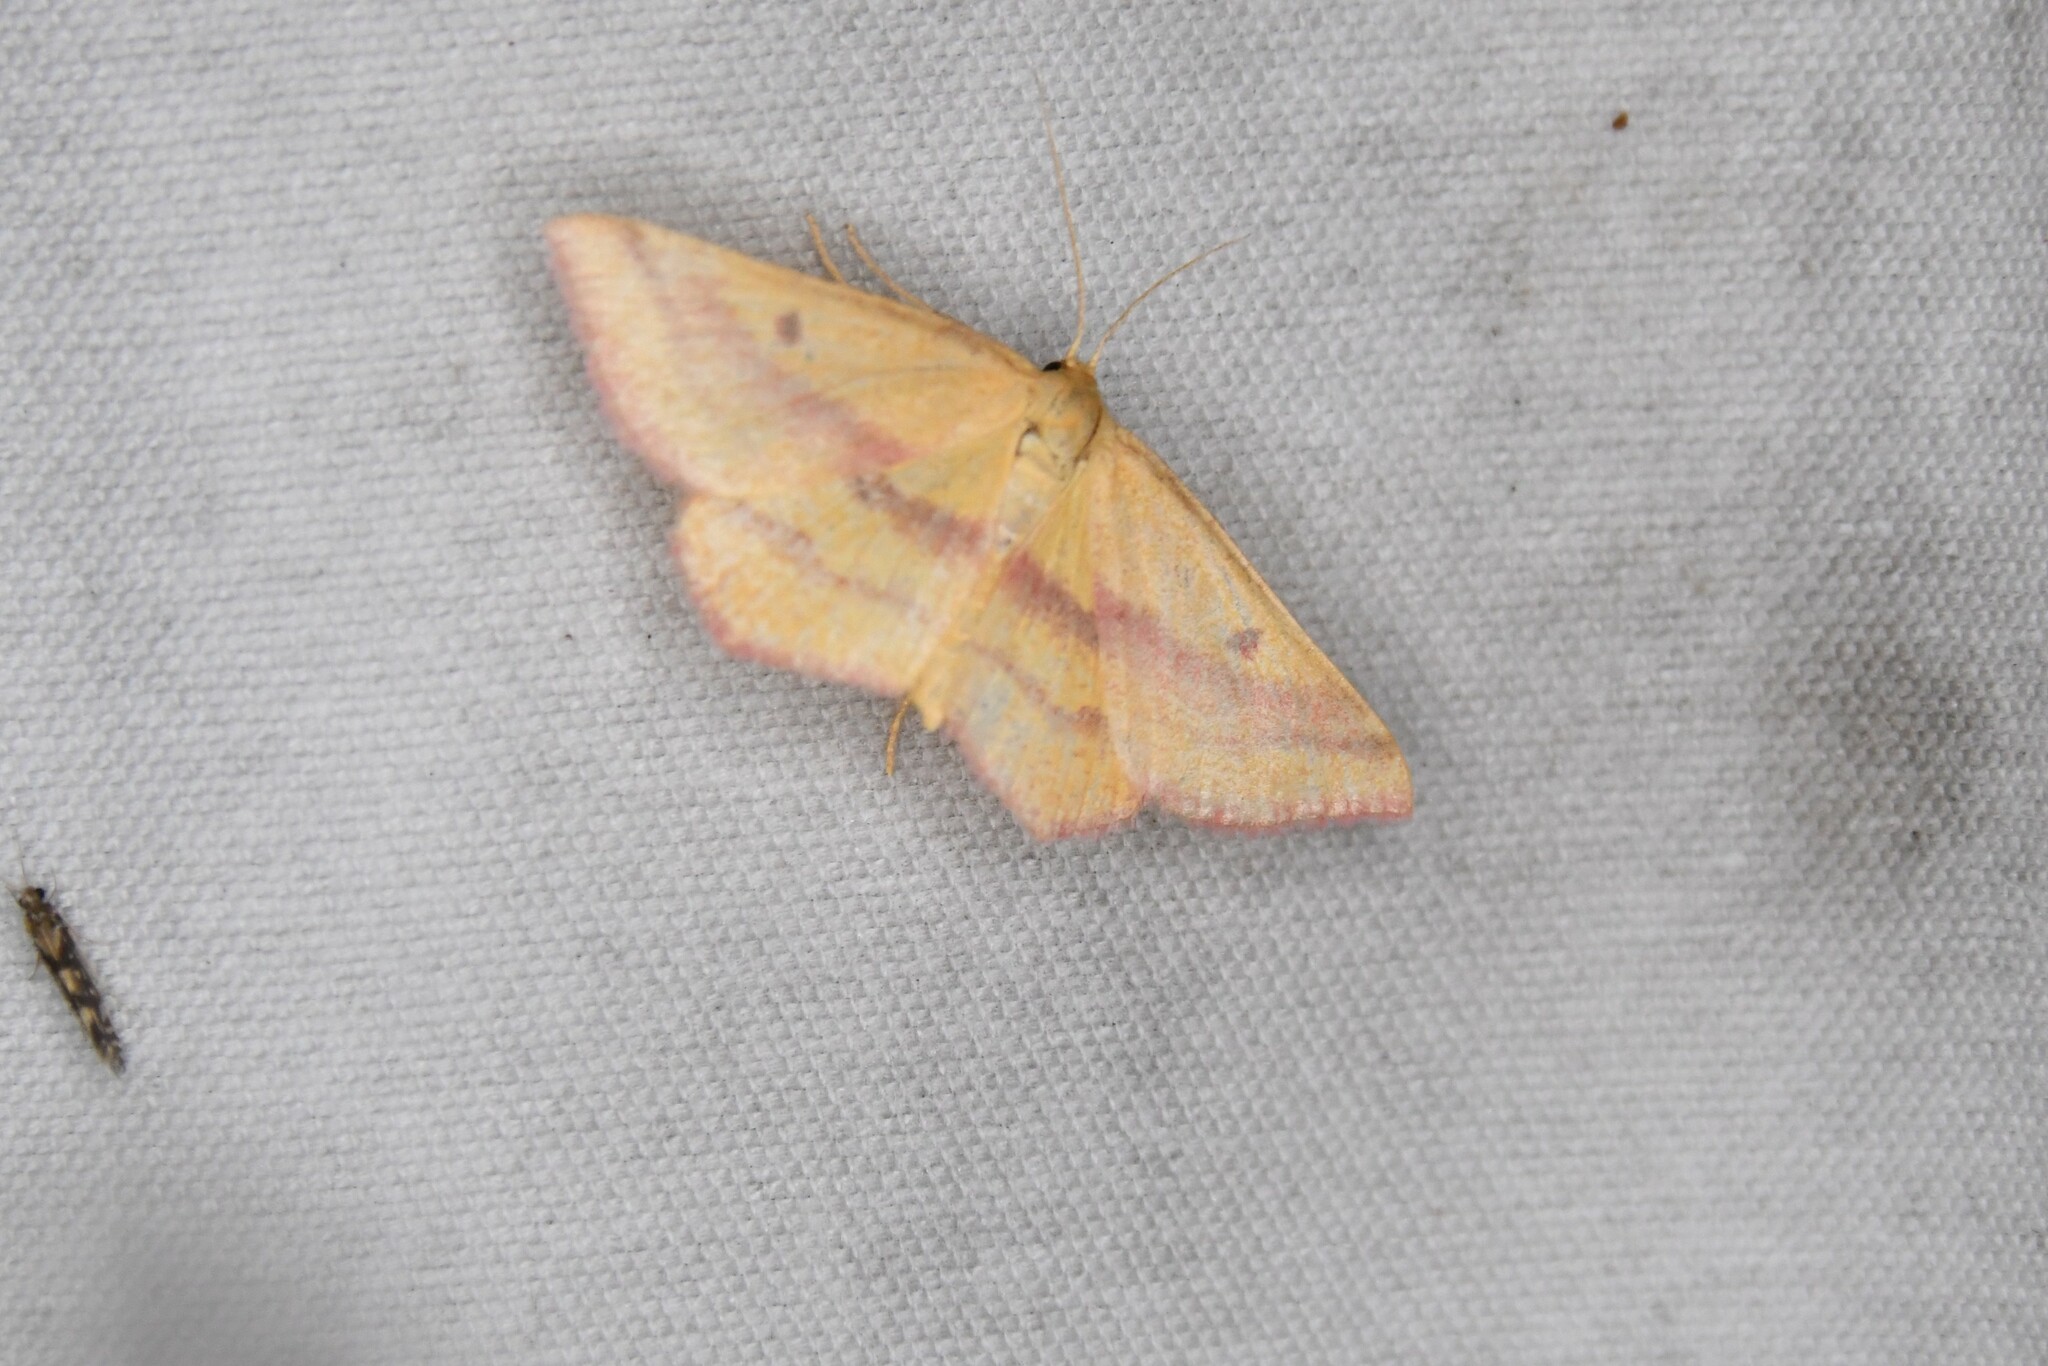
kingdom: Animalia
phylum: Arthropoda
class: Insecta
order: Lepidoptera
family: Geometridae
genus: Haematopis
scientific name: Haematopis grataria
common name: Chickweed geometer
